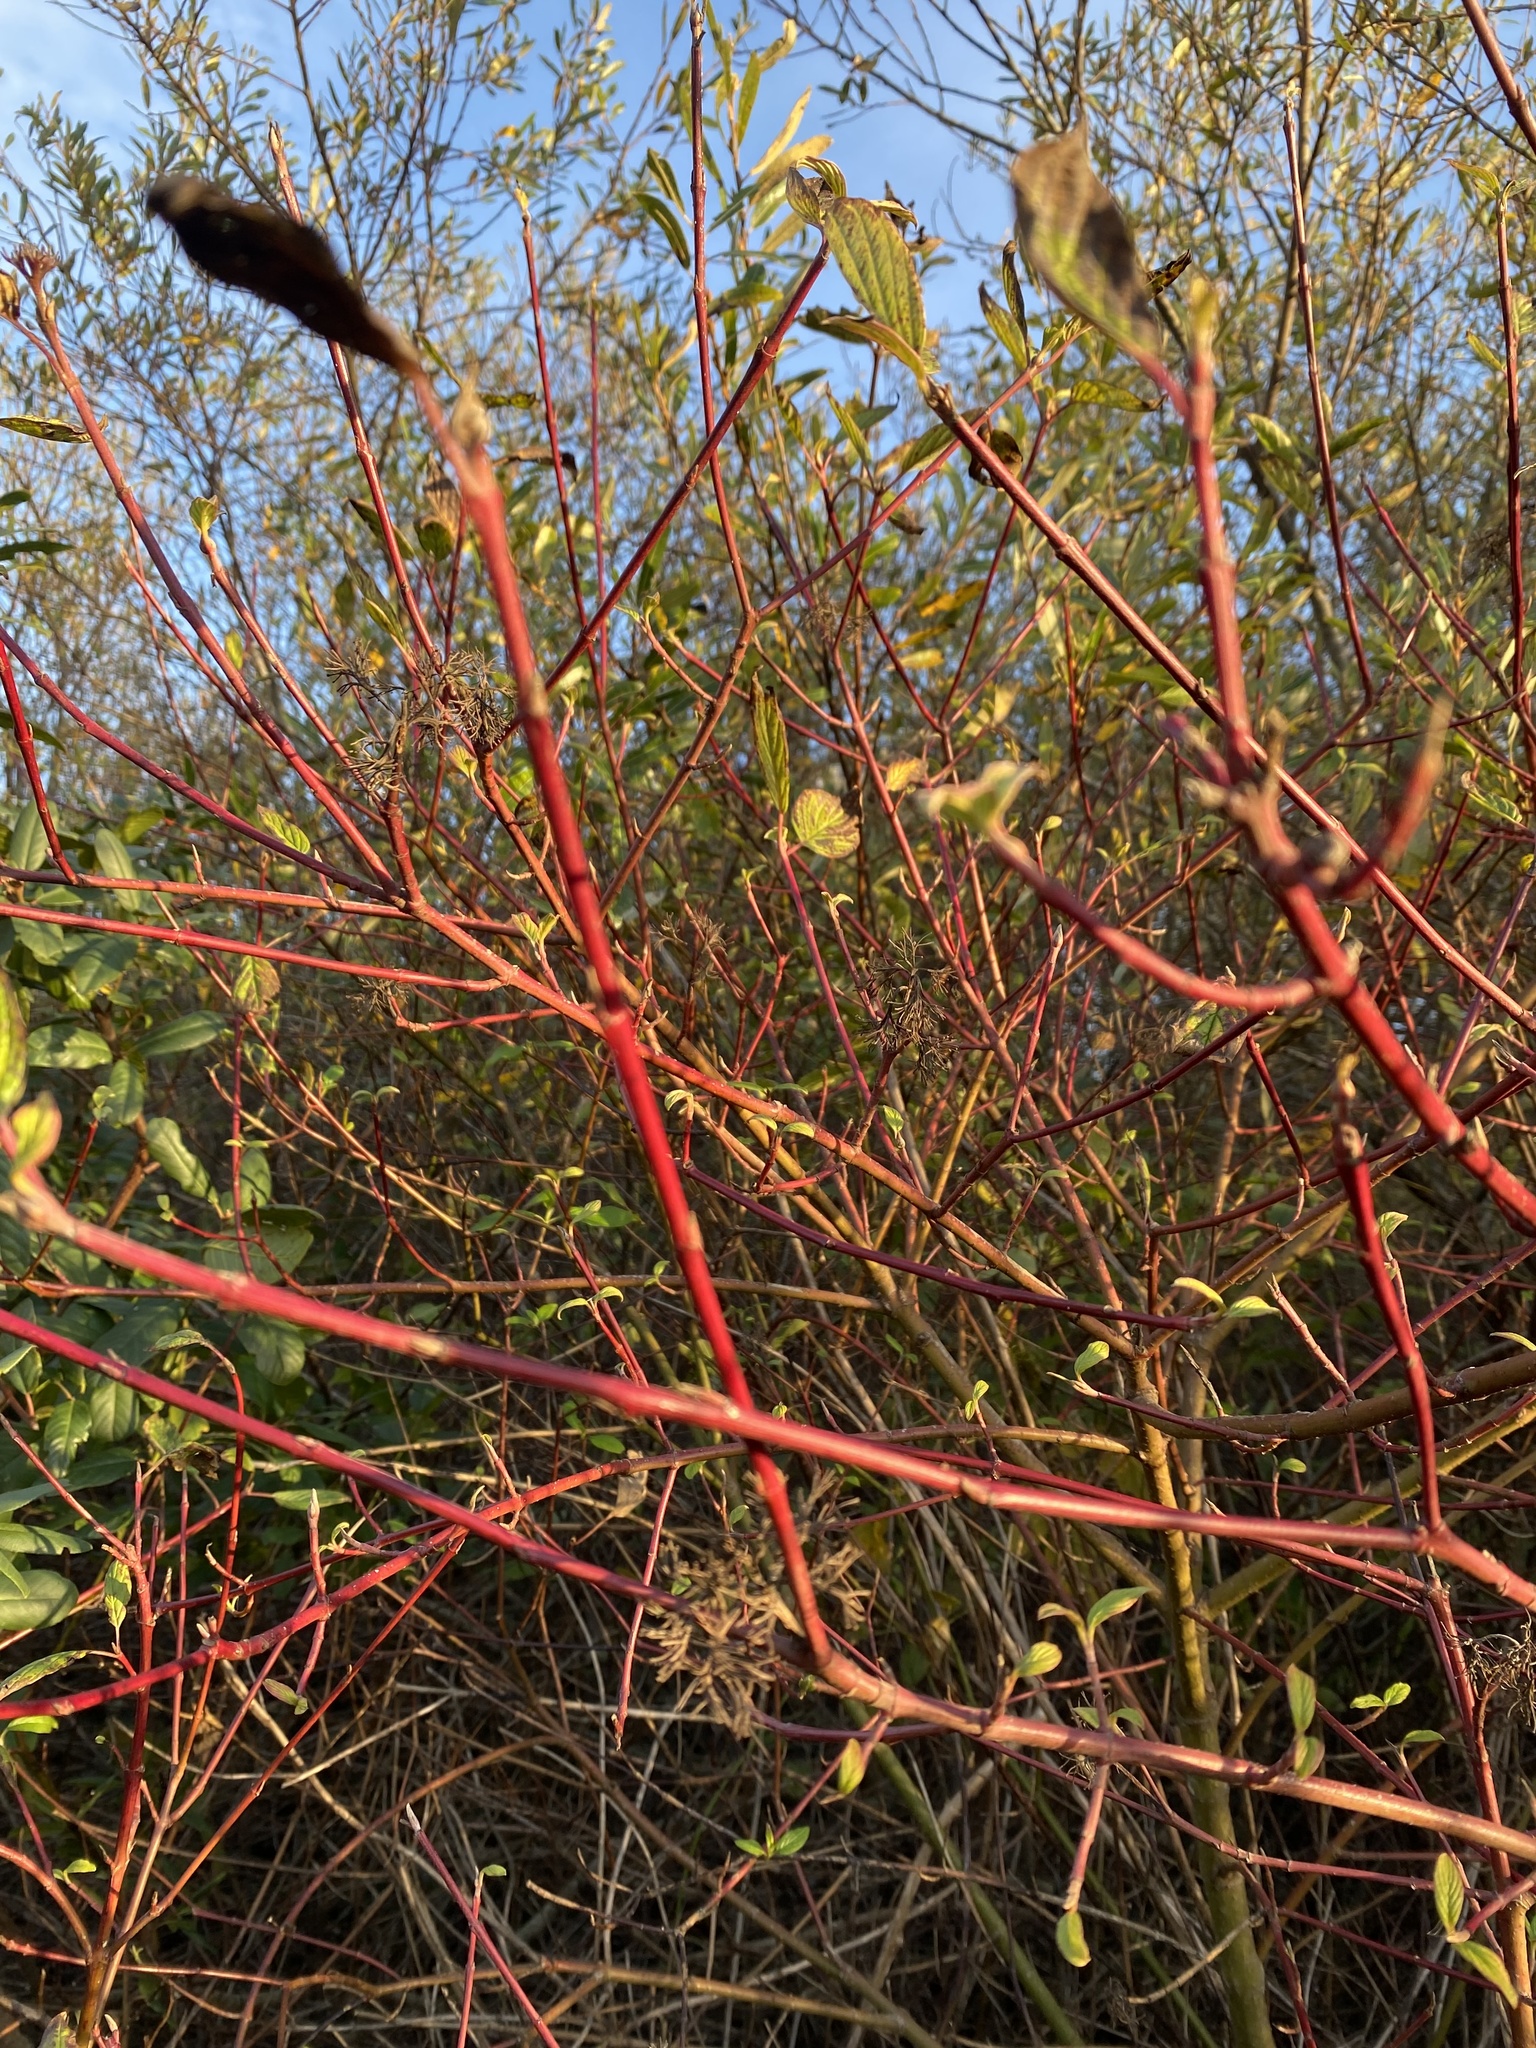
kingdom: Plantae
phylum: Tracheophyta
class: Magnoliopsida
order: Cornales
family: Cornaceae
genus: Cornus
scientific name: Cornus sericea
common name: Red-osier dogwood
